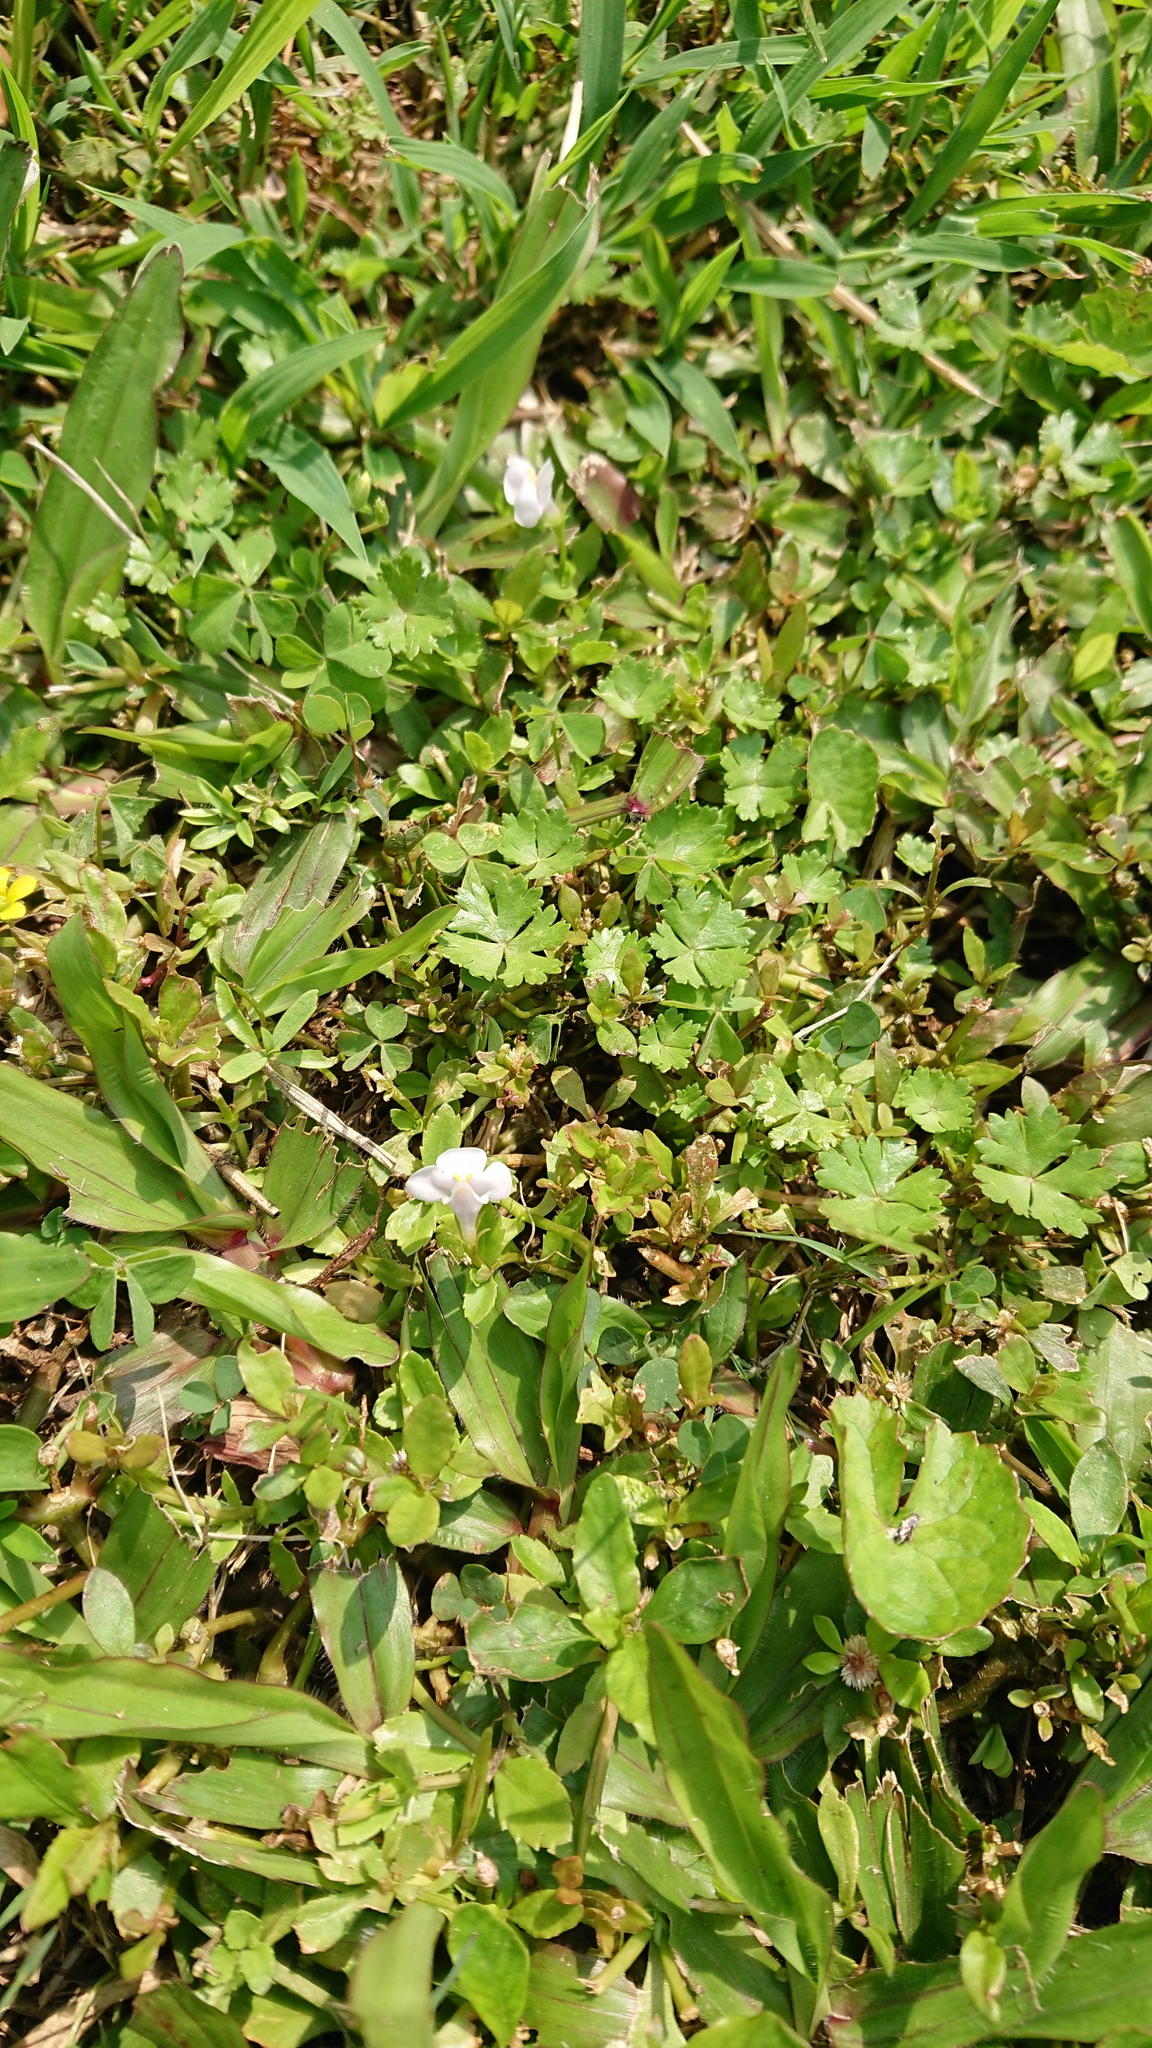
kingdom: Plantae
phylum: Tracheophyta
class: Magnoliopsida
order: Lamiales
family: Linderniaceae
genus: Bonnaya
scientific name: Bonnaya antipoda
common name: Sparrow false pimpernel
